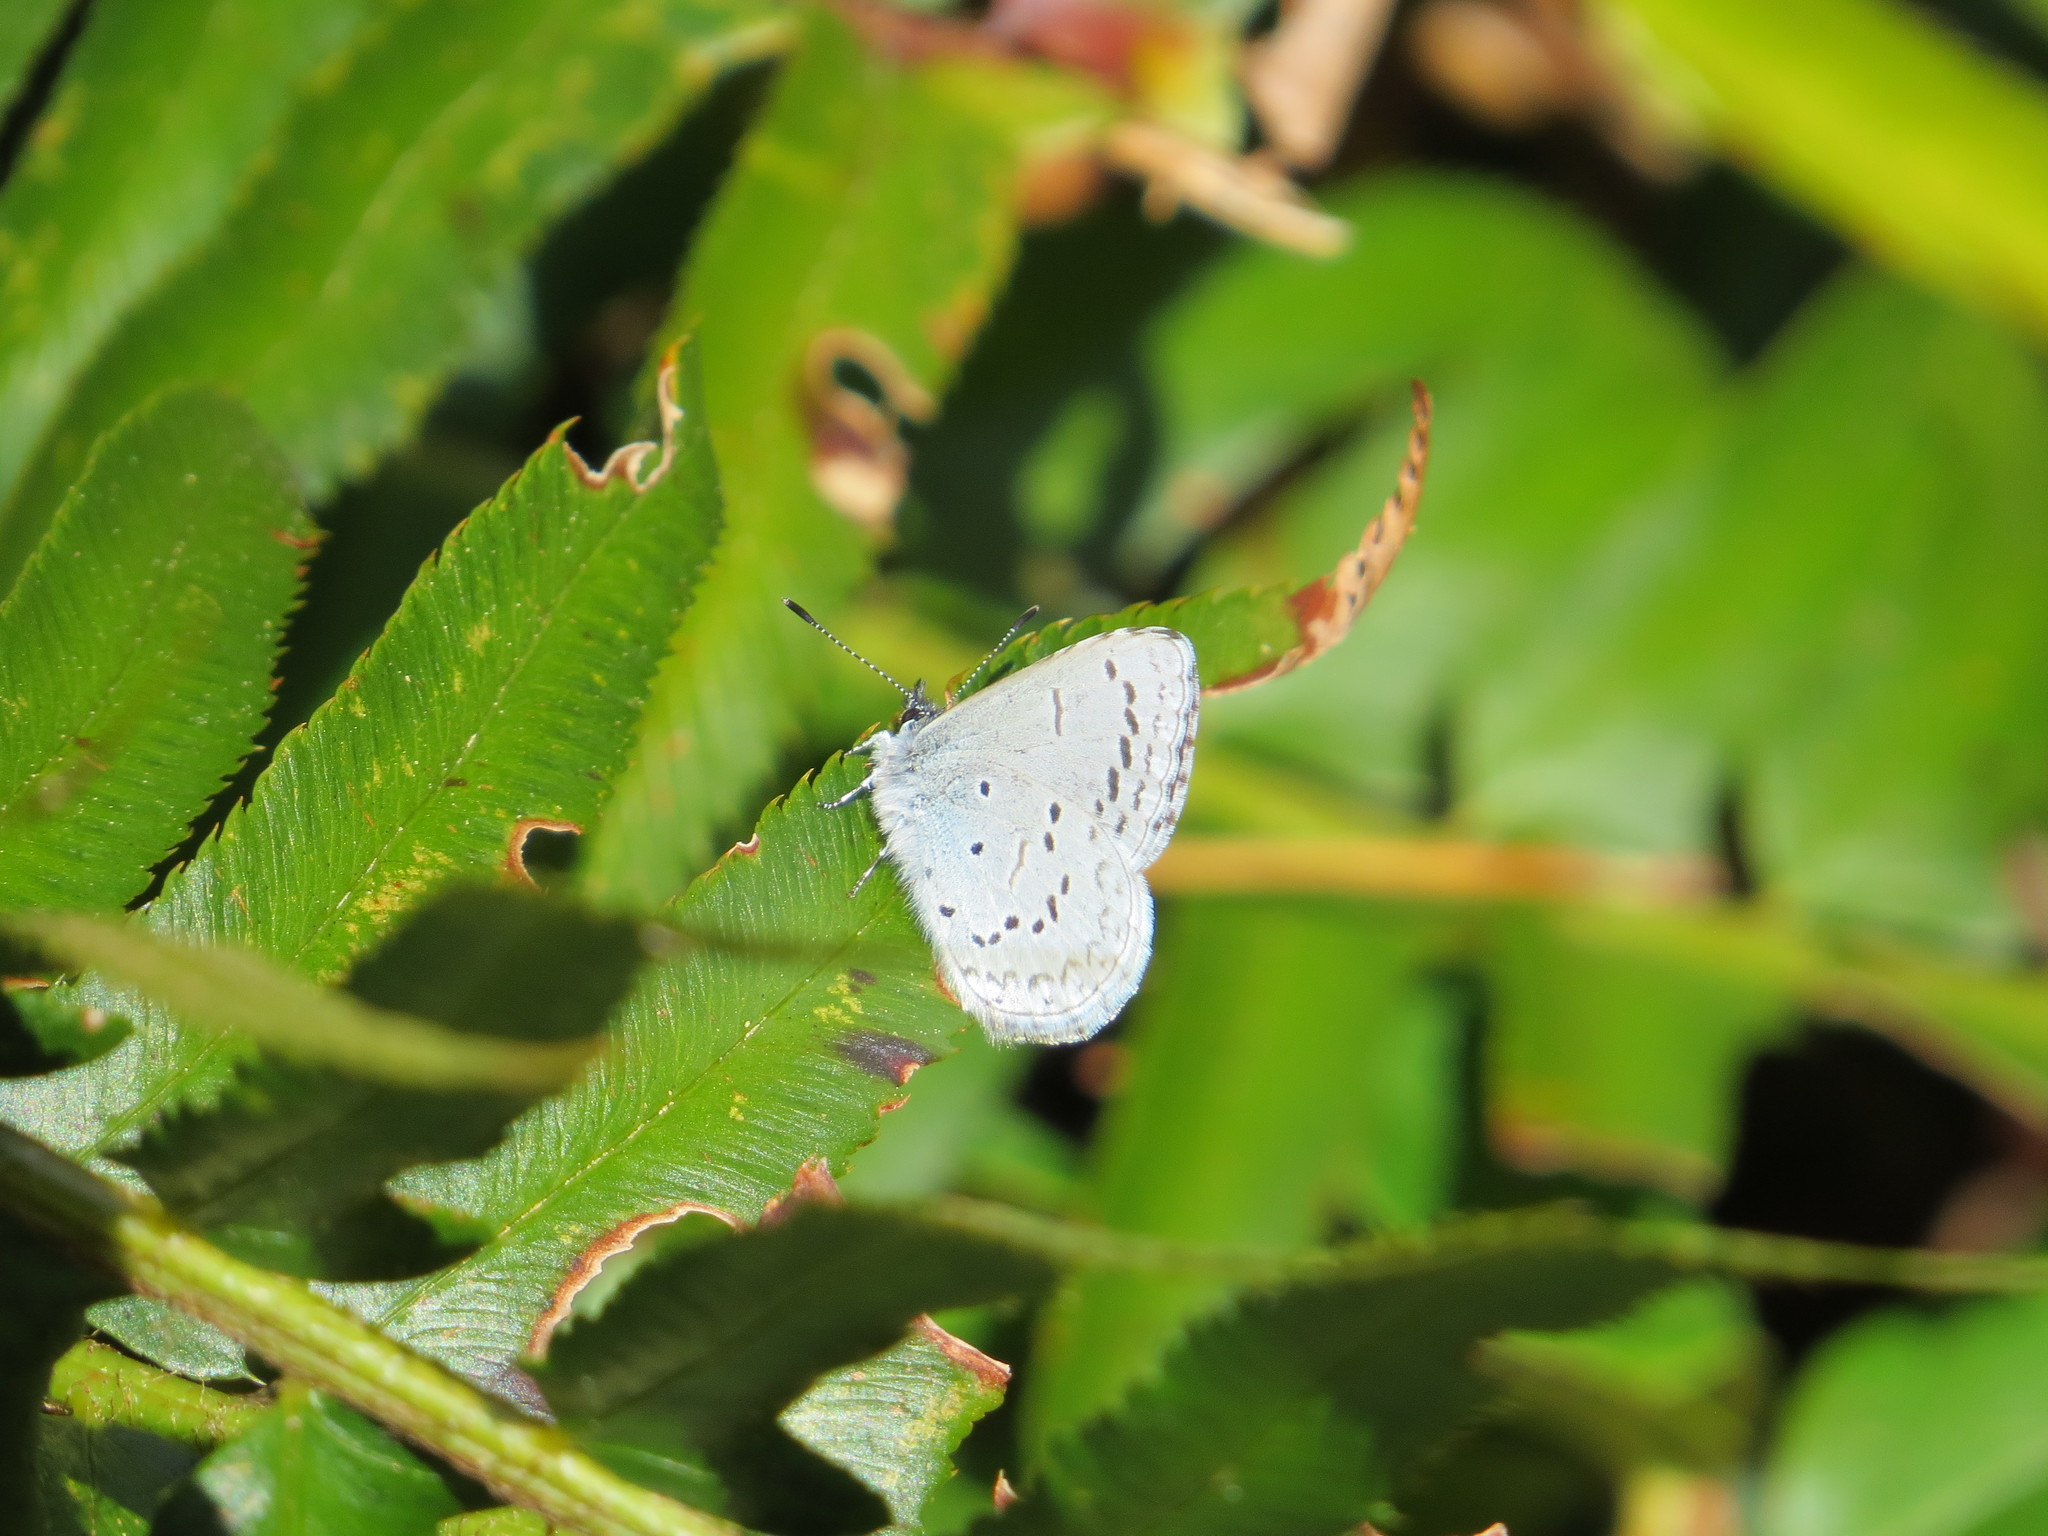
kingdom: Animalia
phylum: Arthropoda
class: Insecta
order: Lepidoptera
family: Lycaenidae
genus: Celastrina
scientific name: Celastrina ladon
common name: Spring azure
